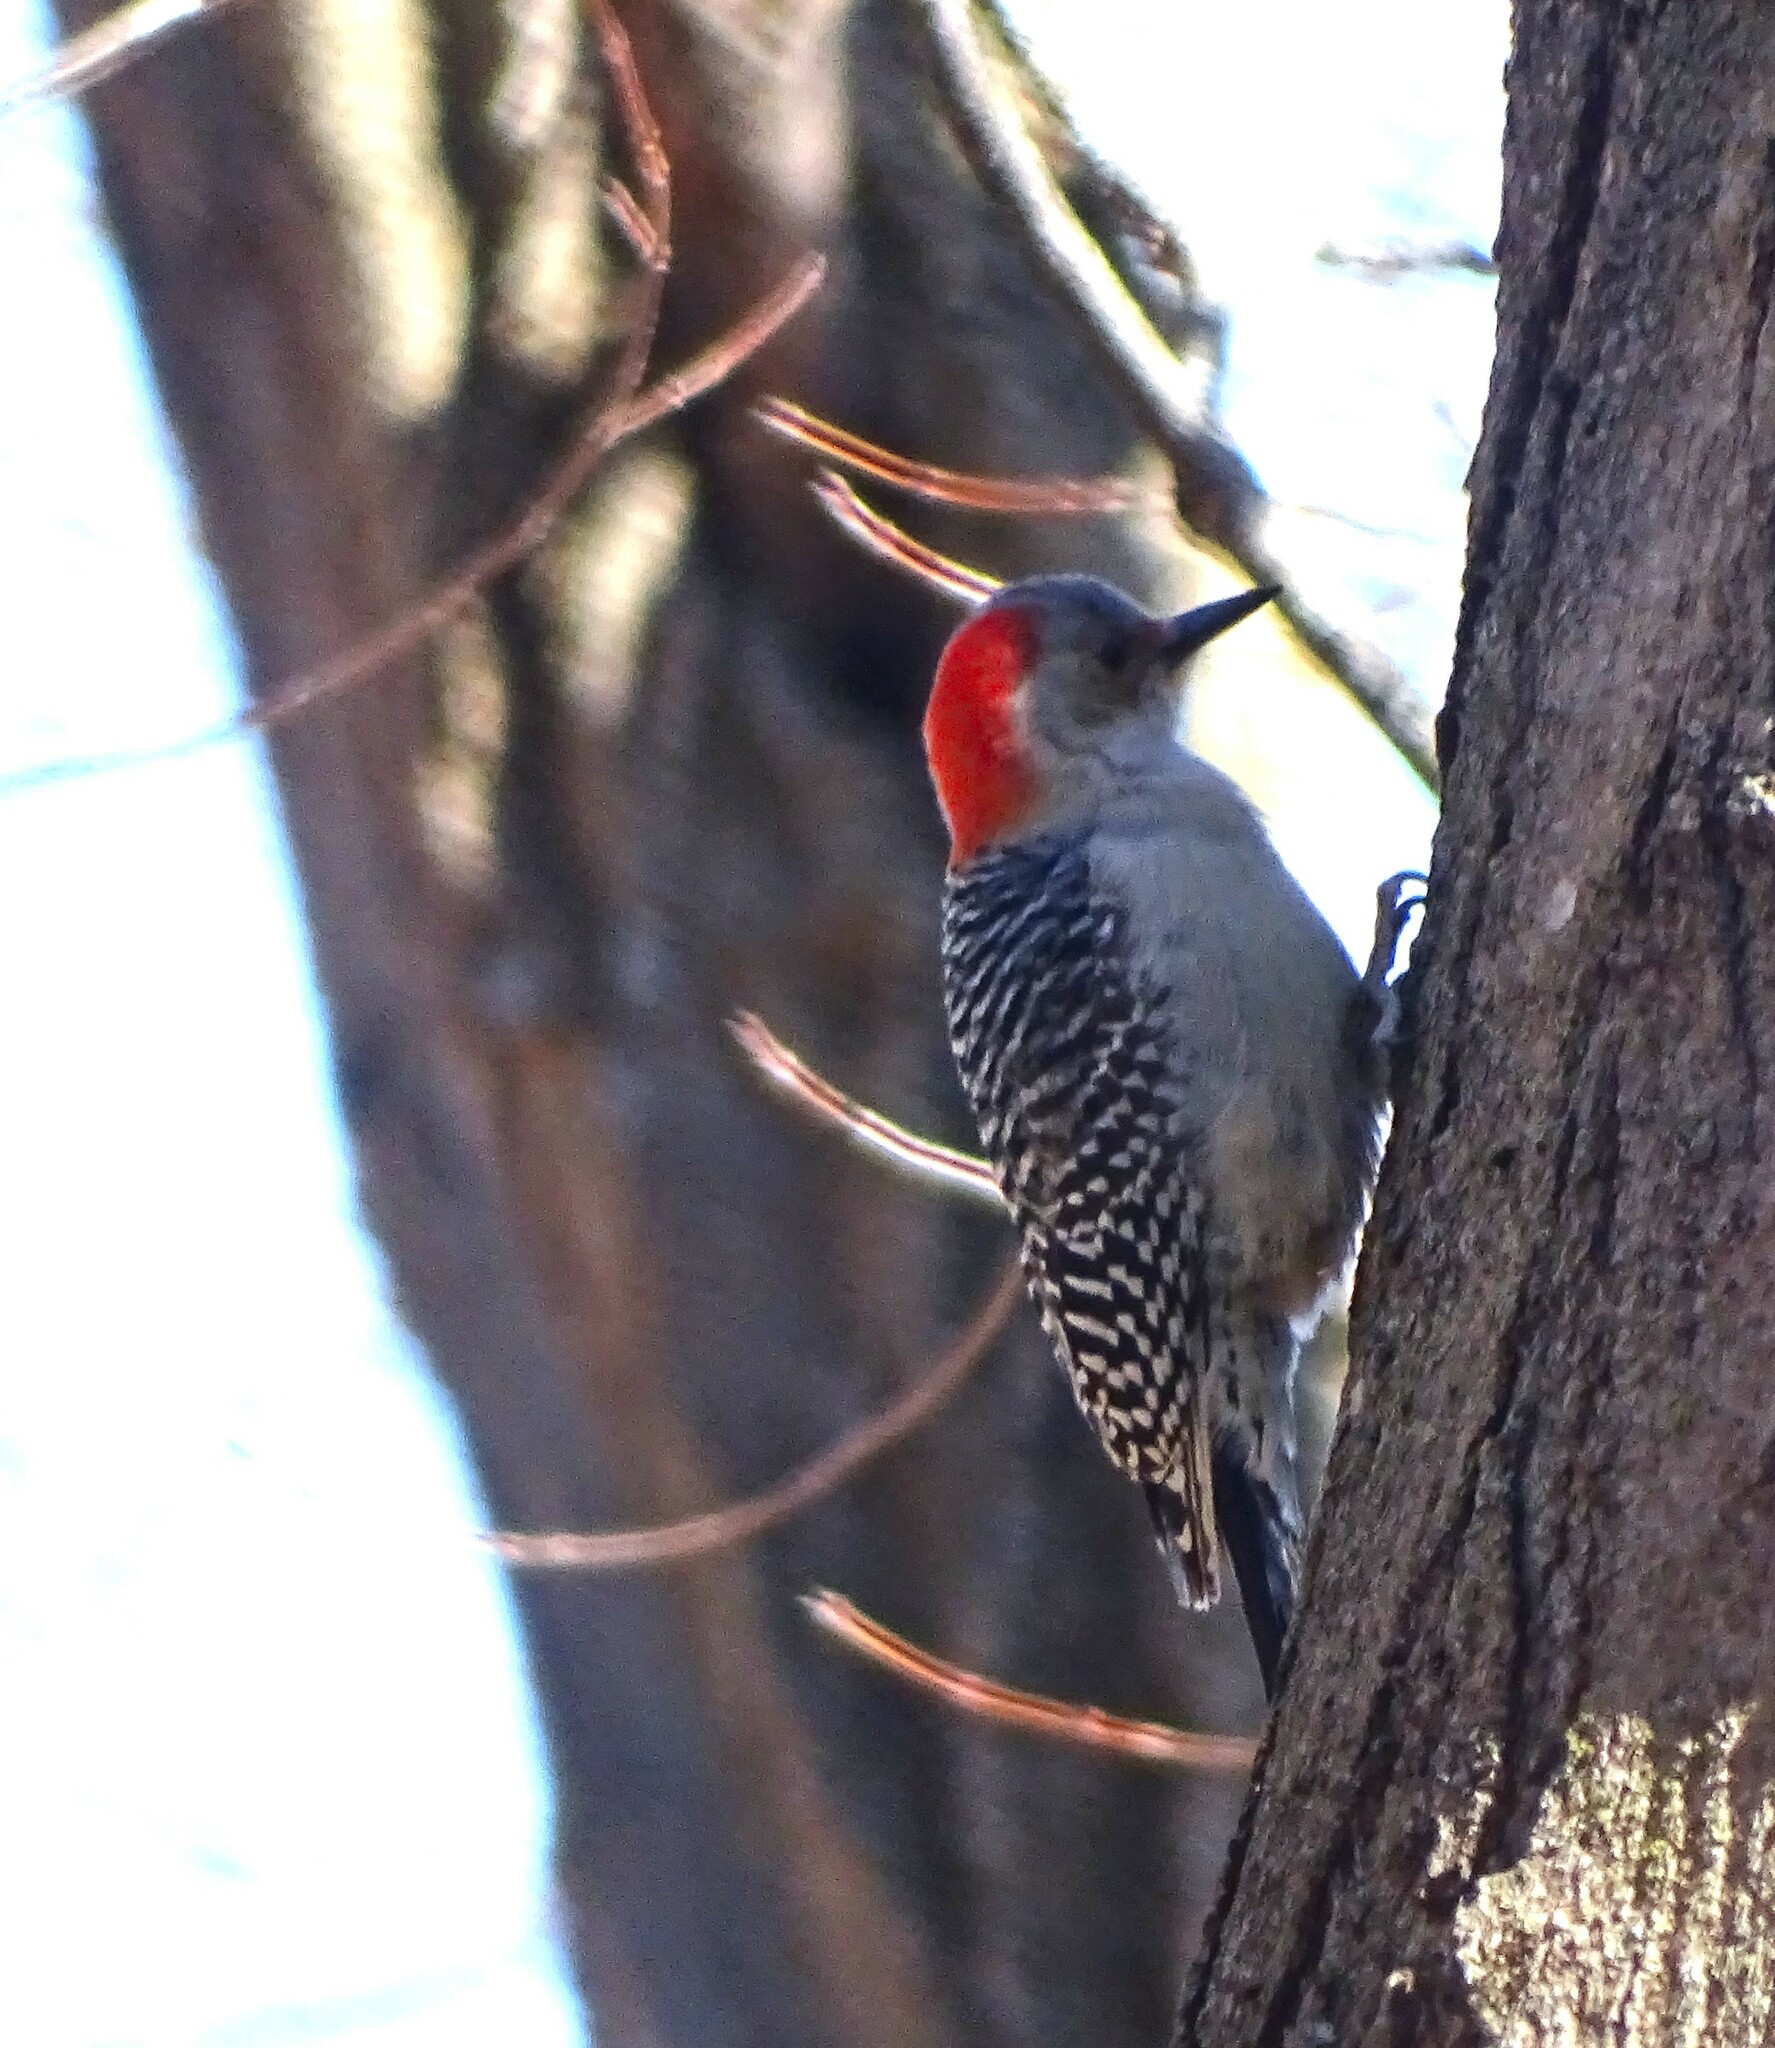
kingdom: Animalia
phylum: Chordata
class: Aves
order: Piciformes
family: Picidae
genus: Melanerpes
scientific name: Melanerpes carolinus
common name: Red-bellied woodpecker
